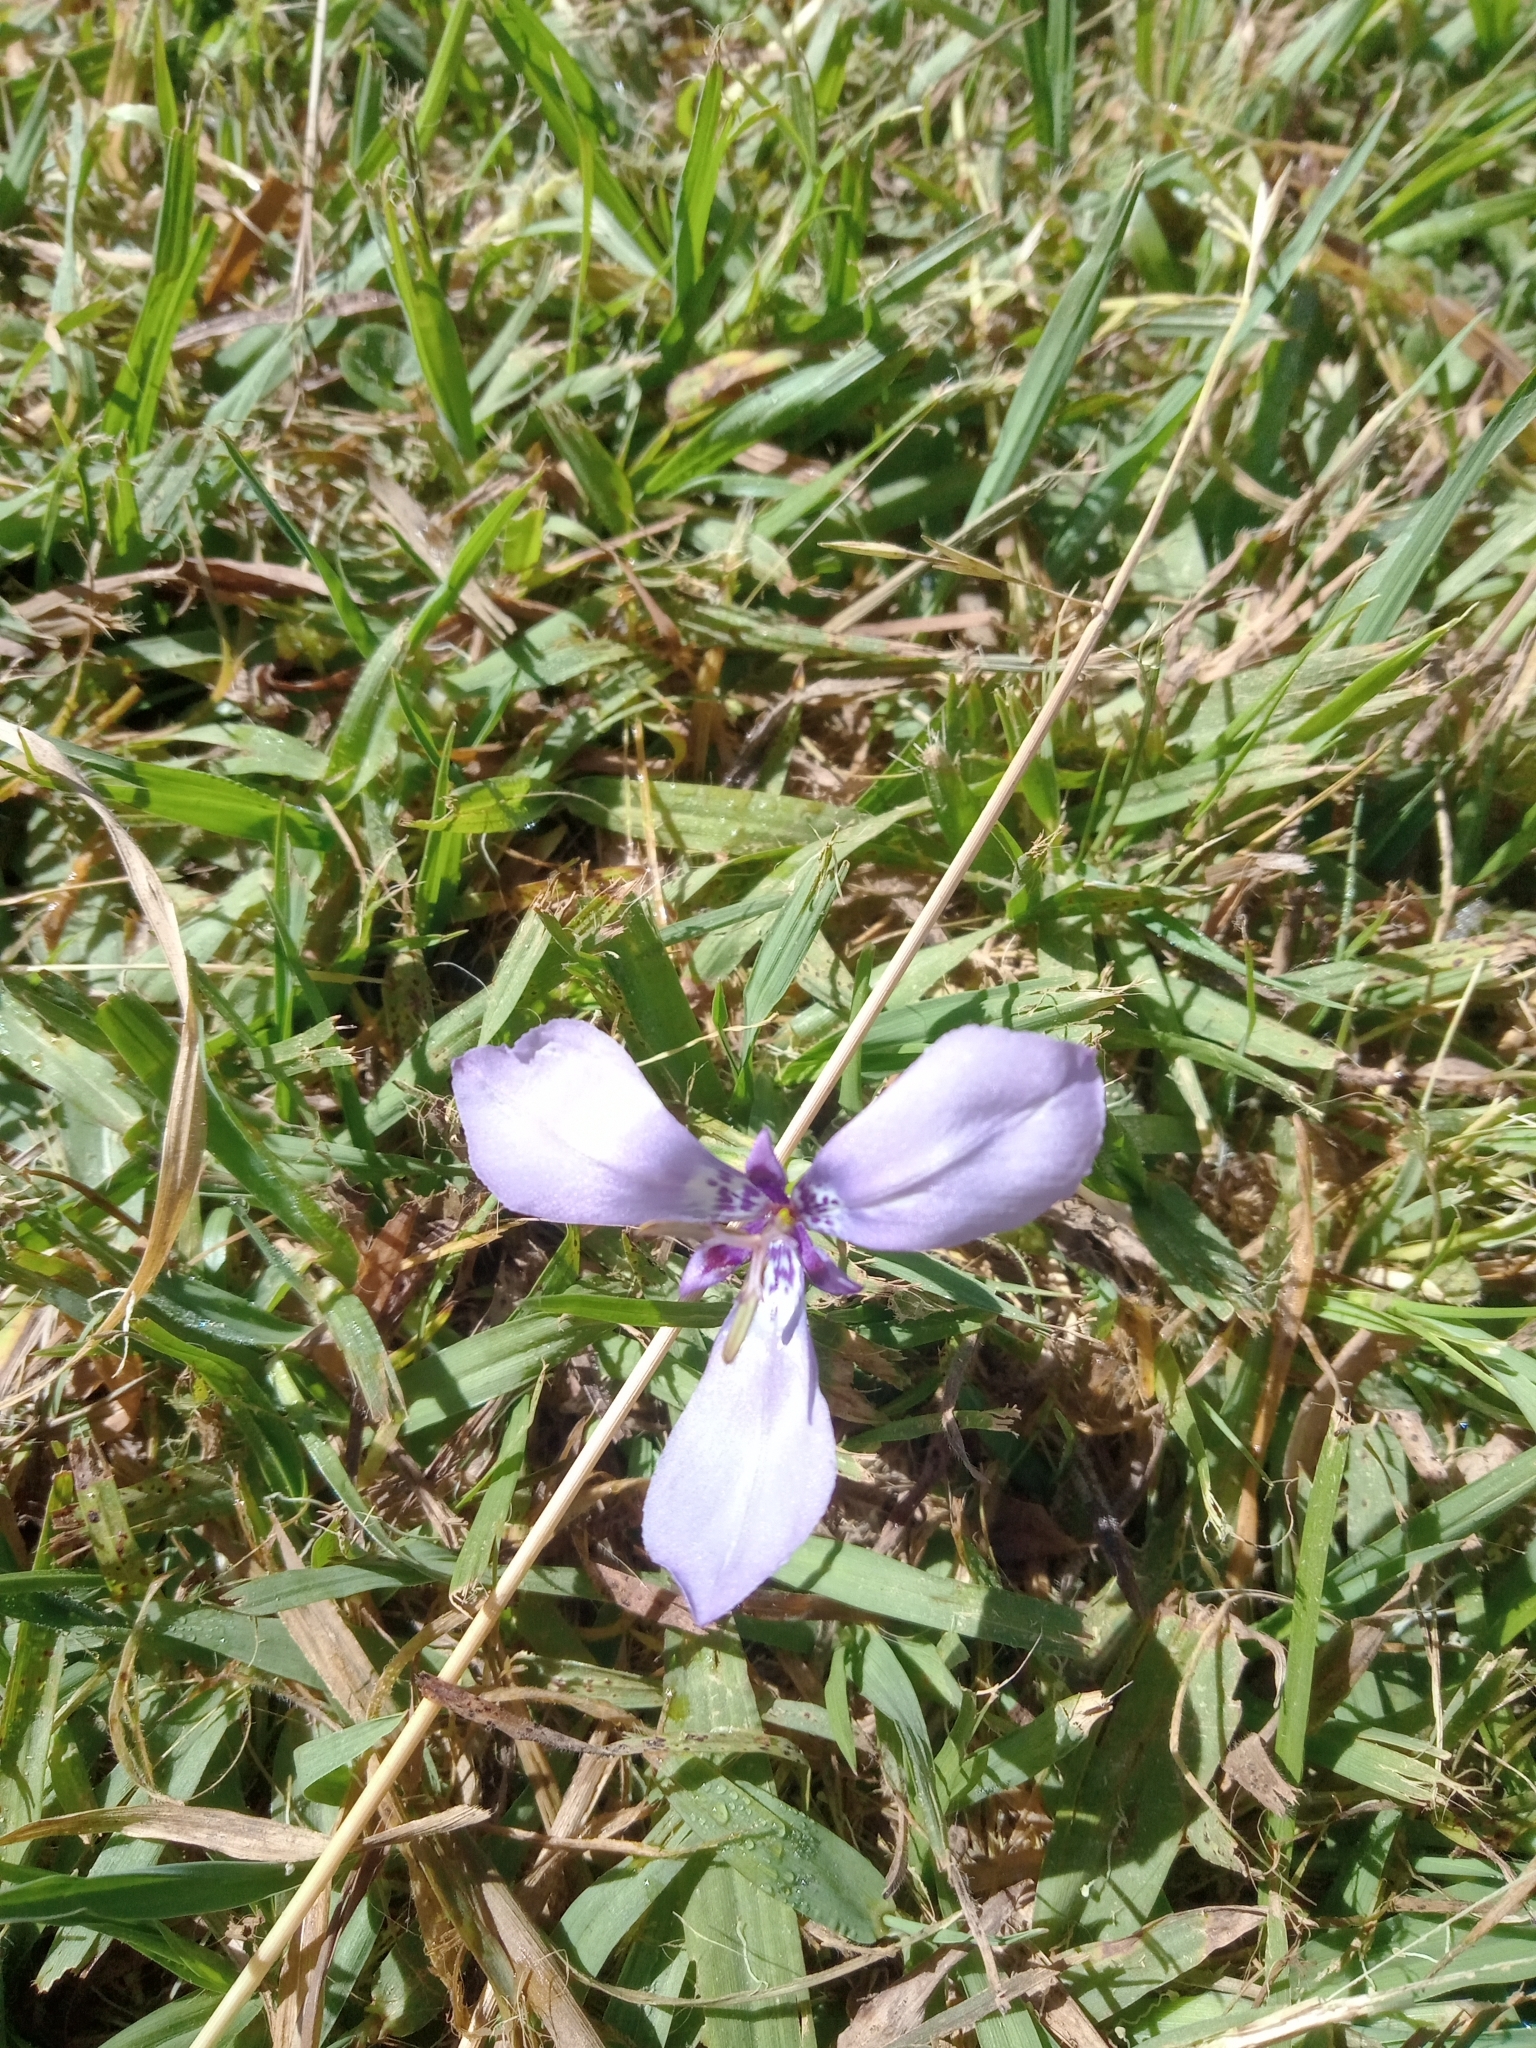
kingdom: Plantae
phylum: Tracheophyta
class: Liliopsida
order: Asparagales
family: Iridaceae
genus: Herbertia
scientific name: Herbertia lahue
